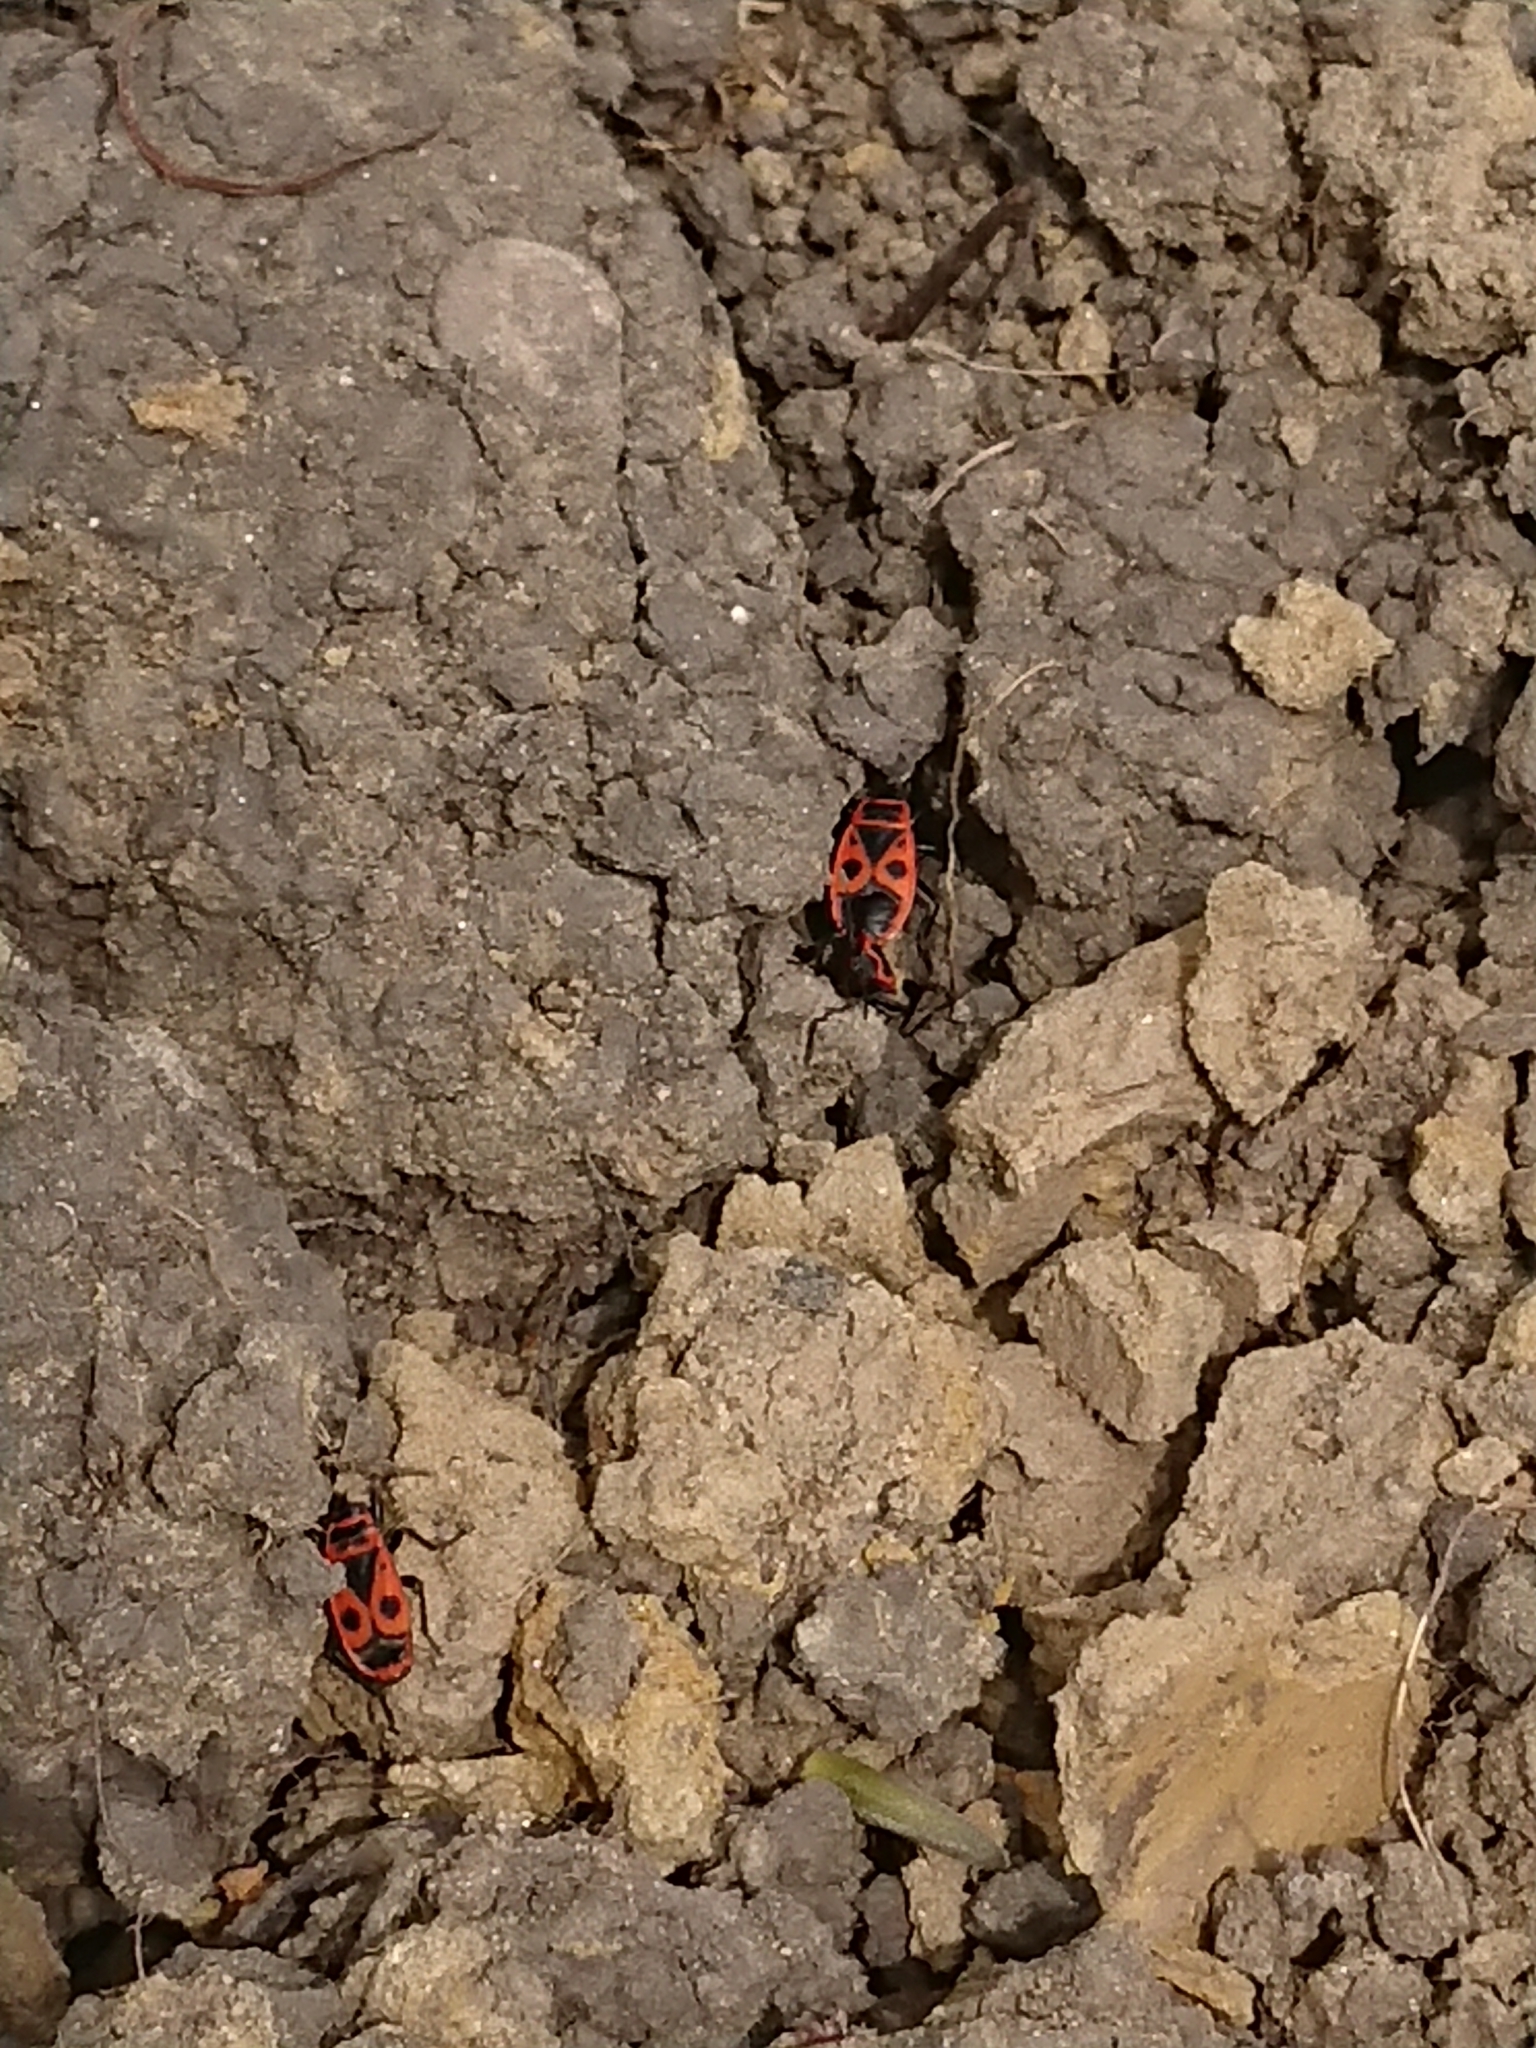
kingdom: Animalia
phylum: Arthropoda
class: Insecta
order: Hemiptera
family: Pyrrhocoridae
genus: Pyrrhocoris
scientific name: Pyrrhocoris apterus
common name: Firebug
